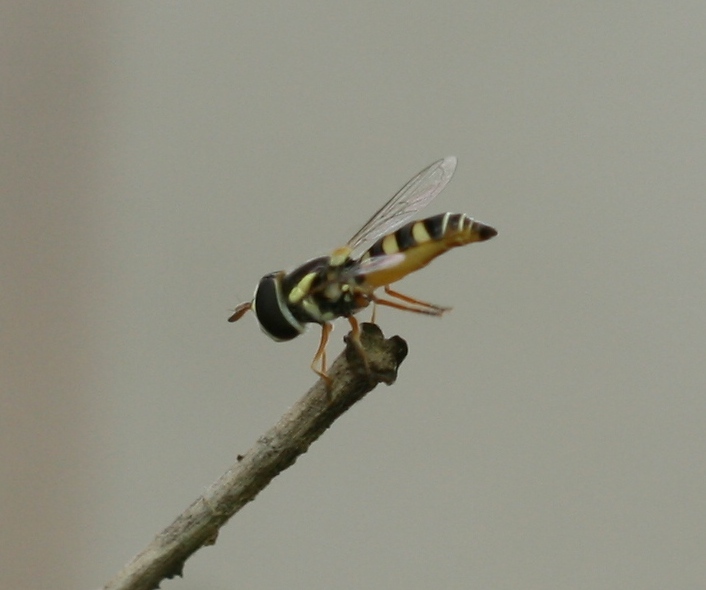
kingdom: Animalia
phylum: Arthropoda
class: Insecta
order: Diptera
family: Syrphidae
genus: Ischiodon
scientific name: Ischiodon aegyptius
